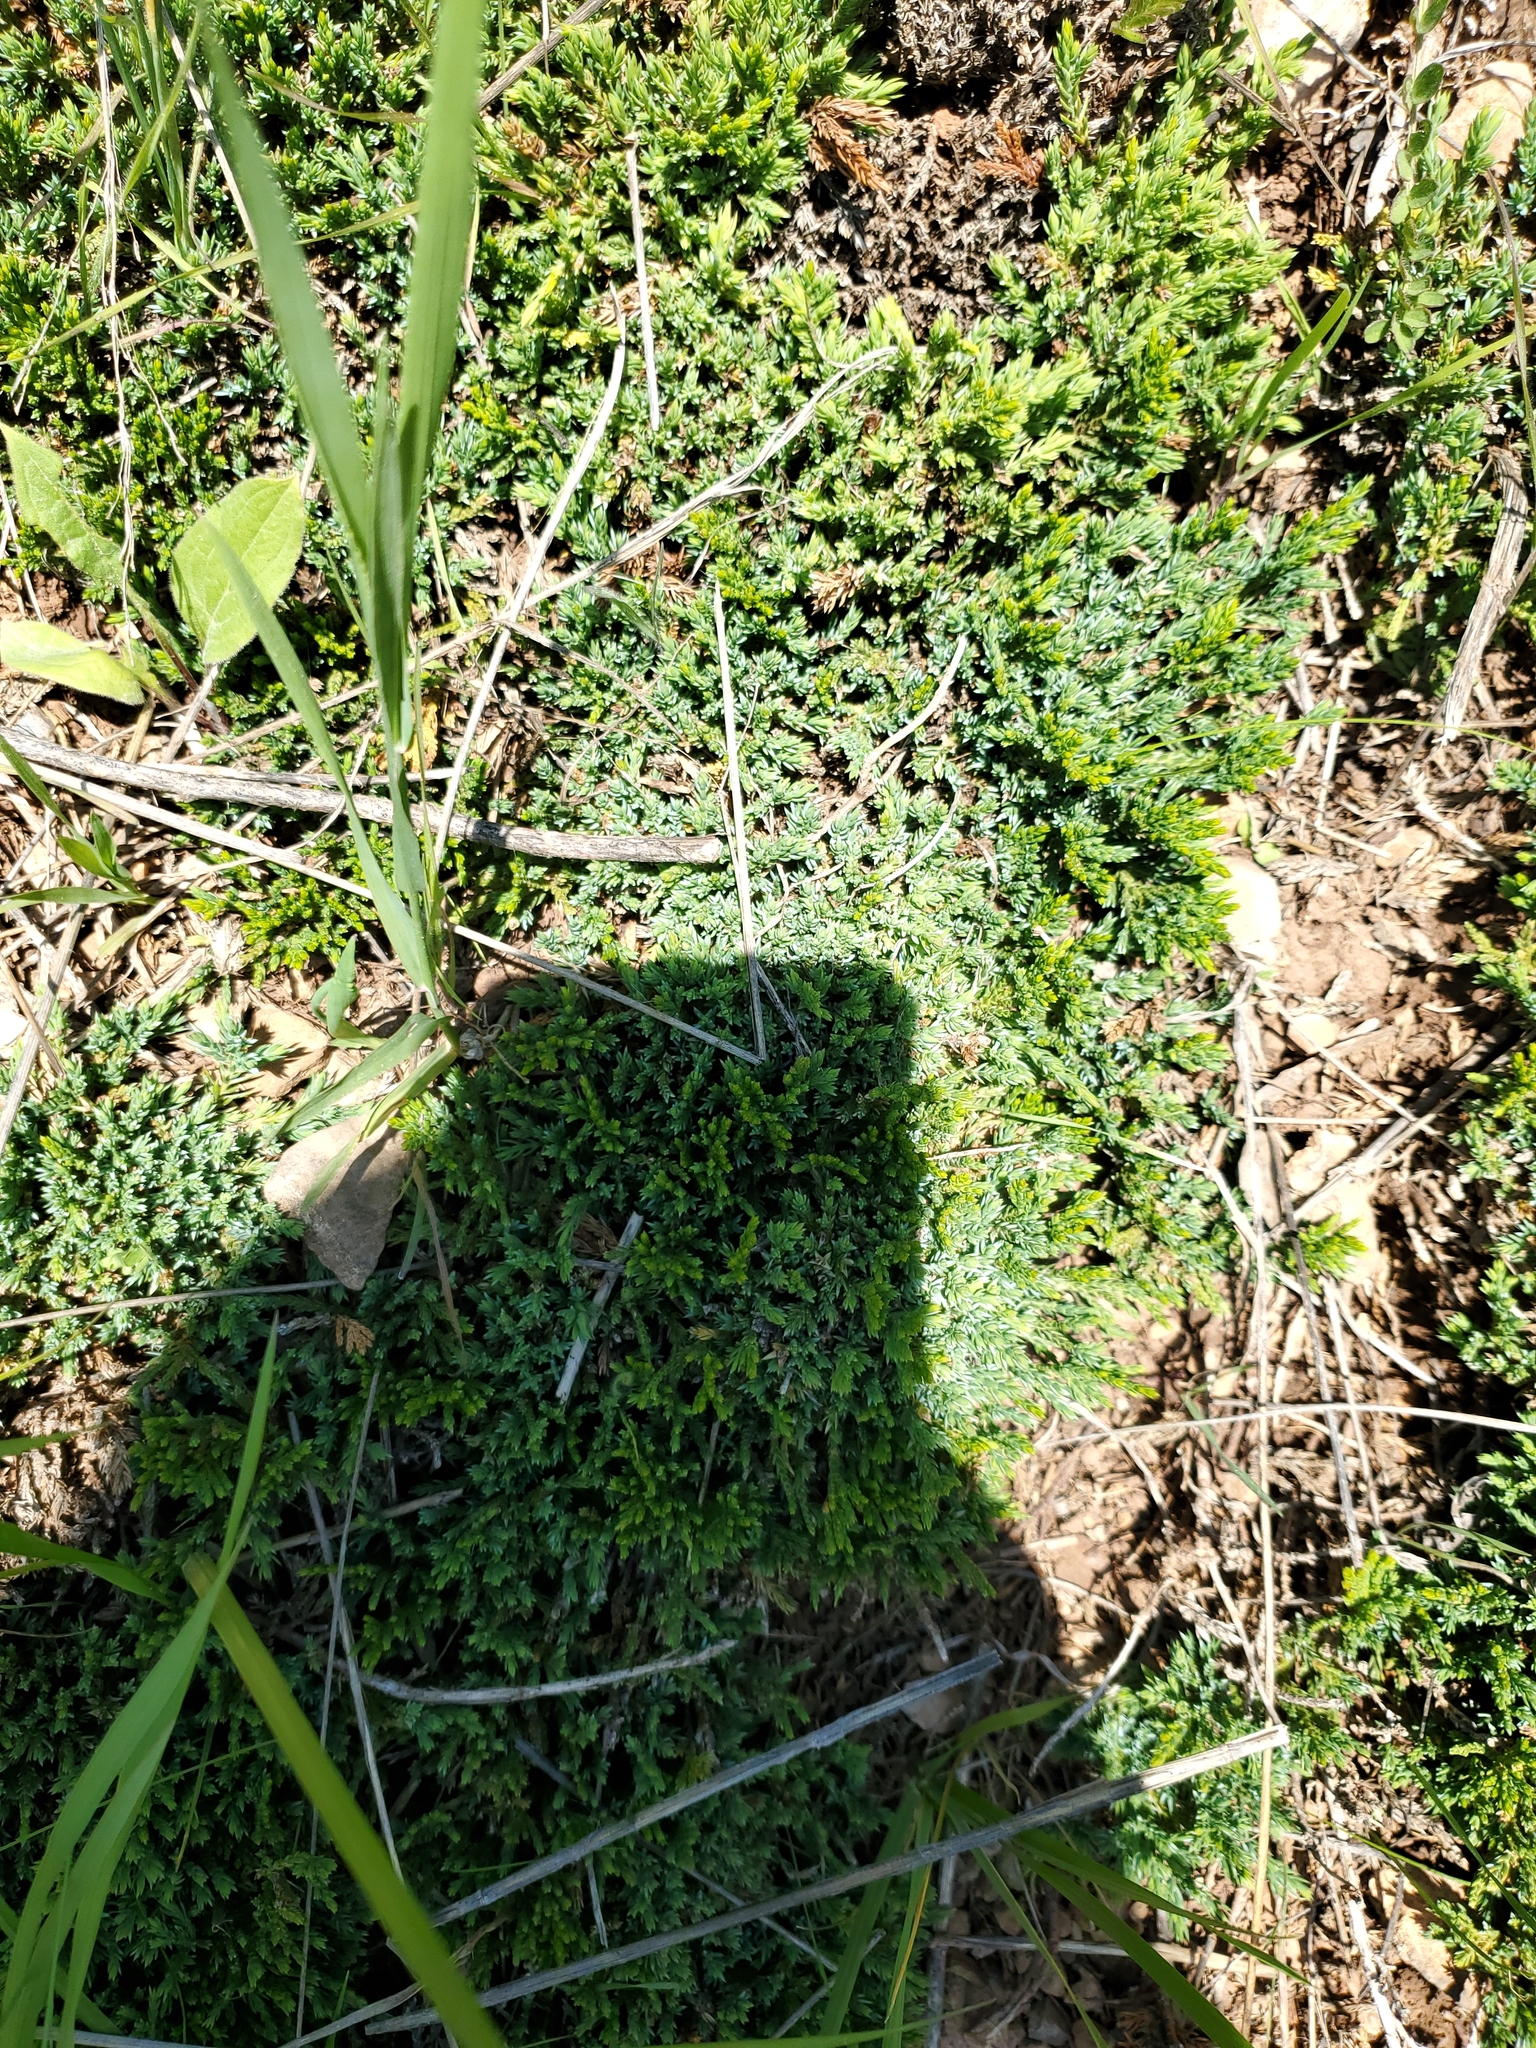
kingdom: Plantae
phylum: Tracheophyta
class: Pinopsida
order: Pinales
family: Cupressaceae
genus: Juniperus
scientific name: Juniperus horizontalis
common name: Creeping juniper
